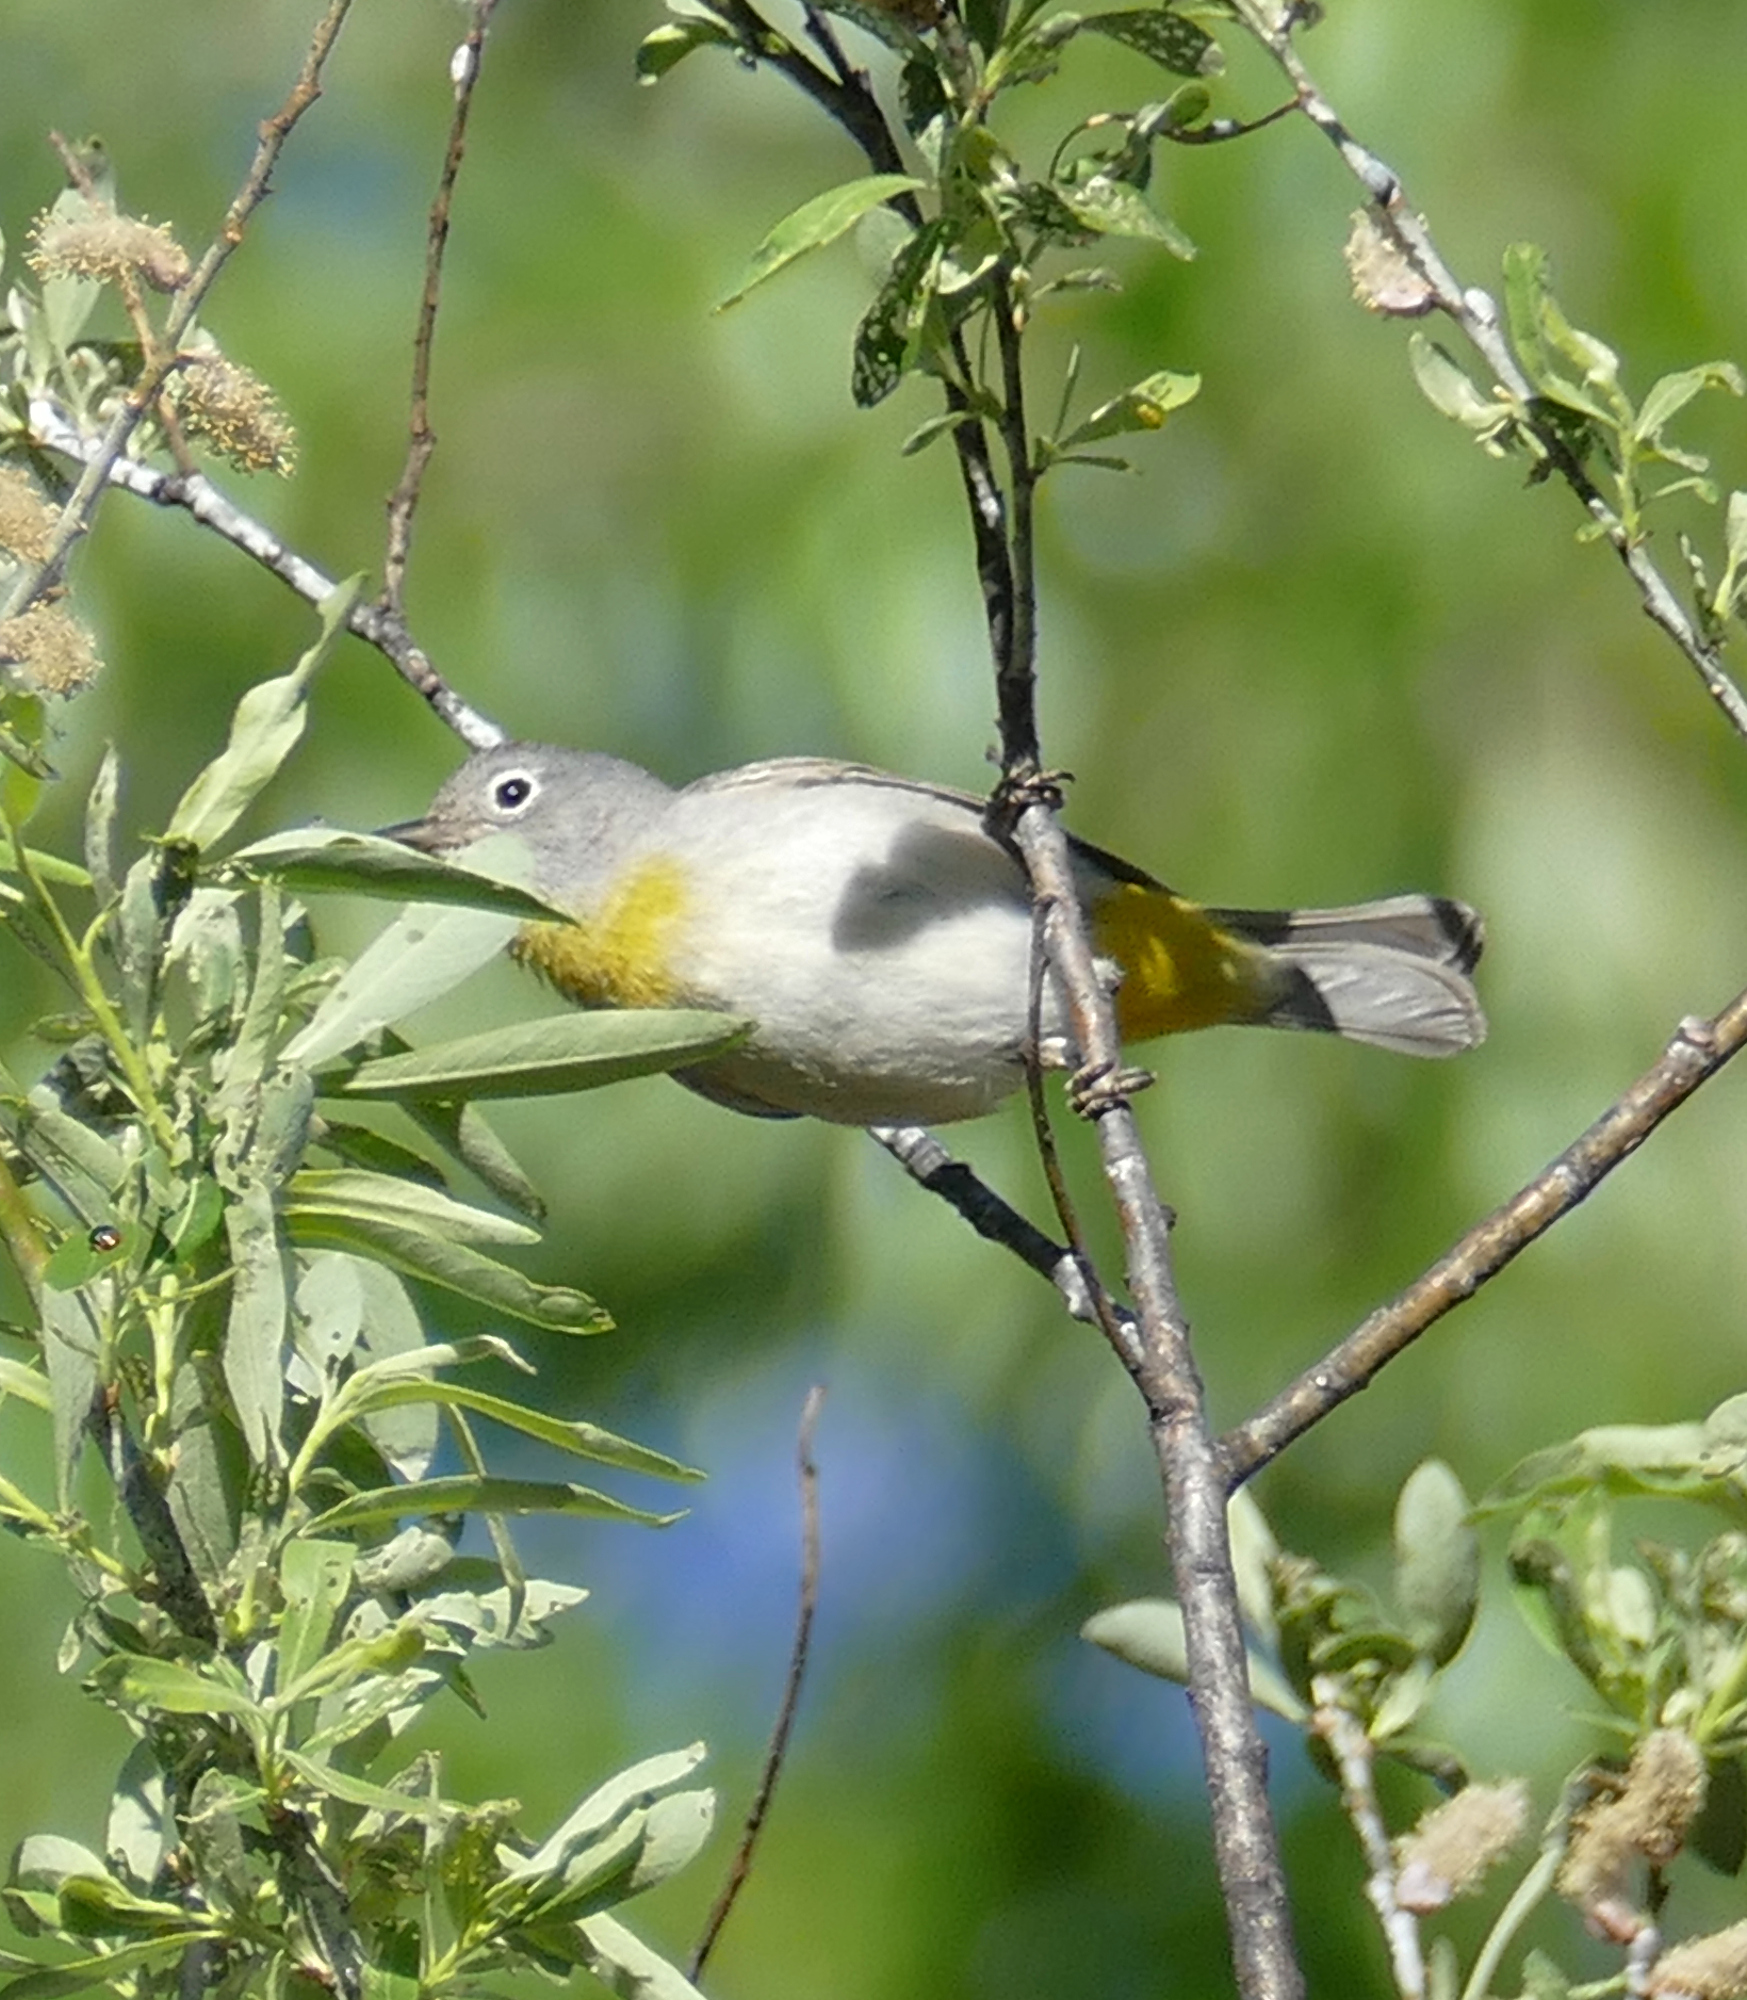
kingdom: Animalia
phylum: Chordata
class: Aves
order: Passeriformes
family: Parulidae
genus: Leiothlypis
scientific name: Leiothlypis virginiae
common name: Virginia's warbler
